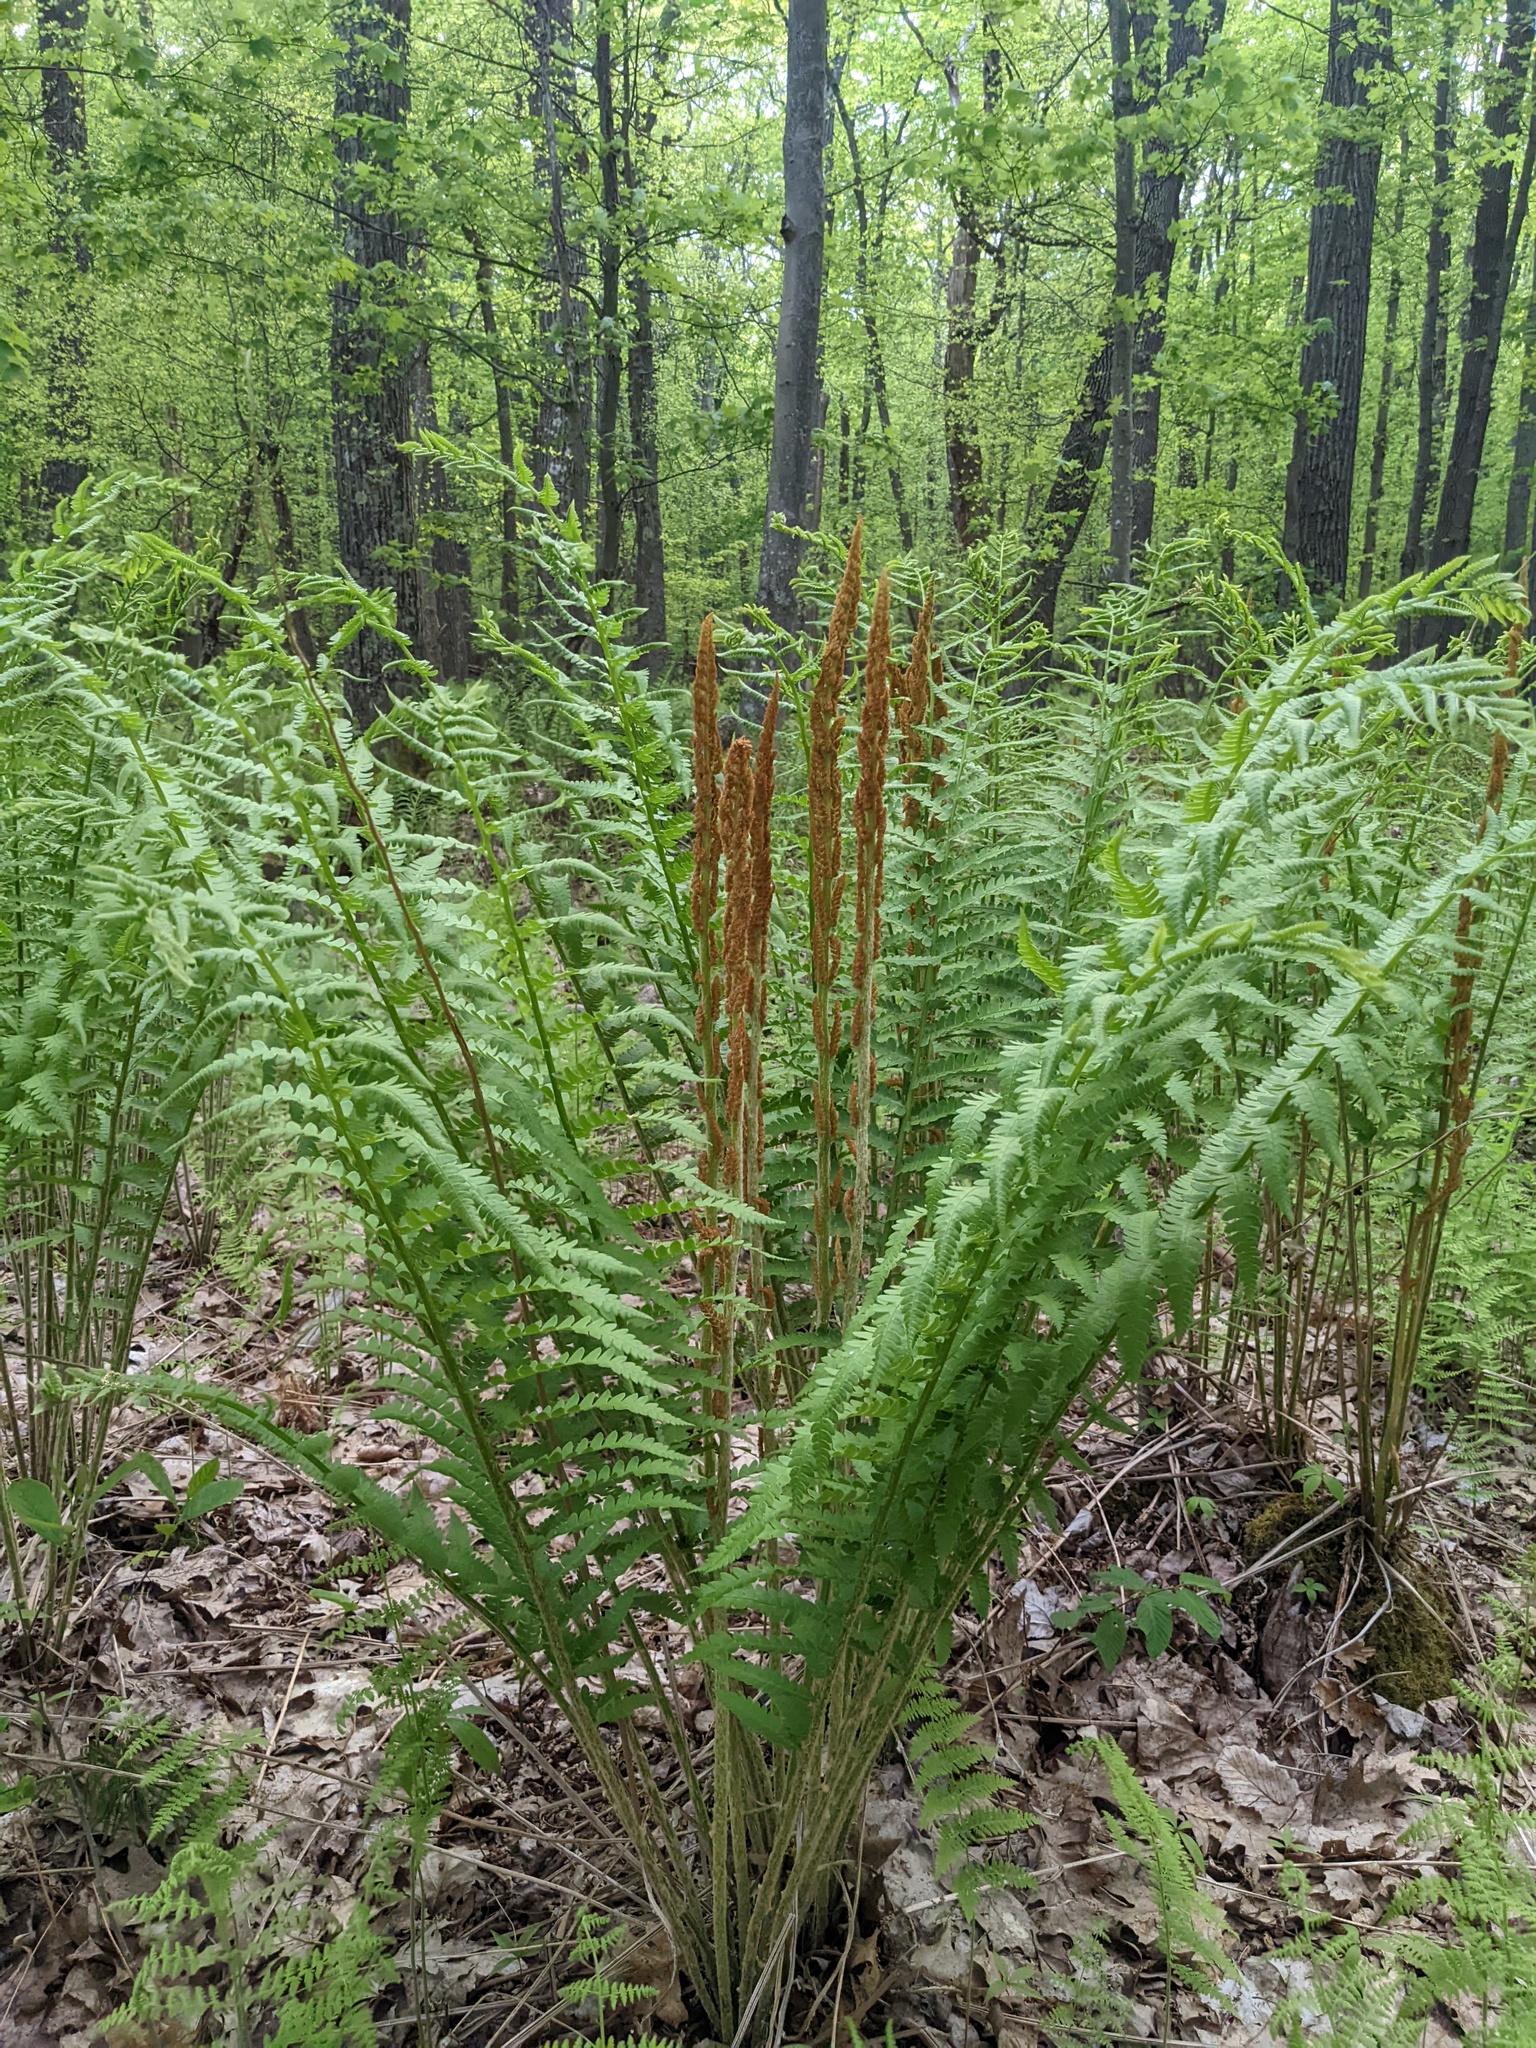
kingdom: Plantae
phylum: Tracheophyta
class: Polypodiopsida
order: Osmundales
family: Osmundaceae
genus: Osmundastrum
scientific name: Osmundastrum cinnamomeum
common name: Cinnamon fern
